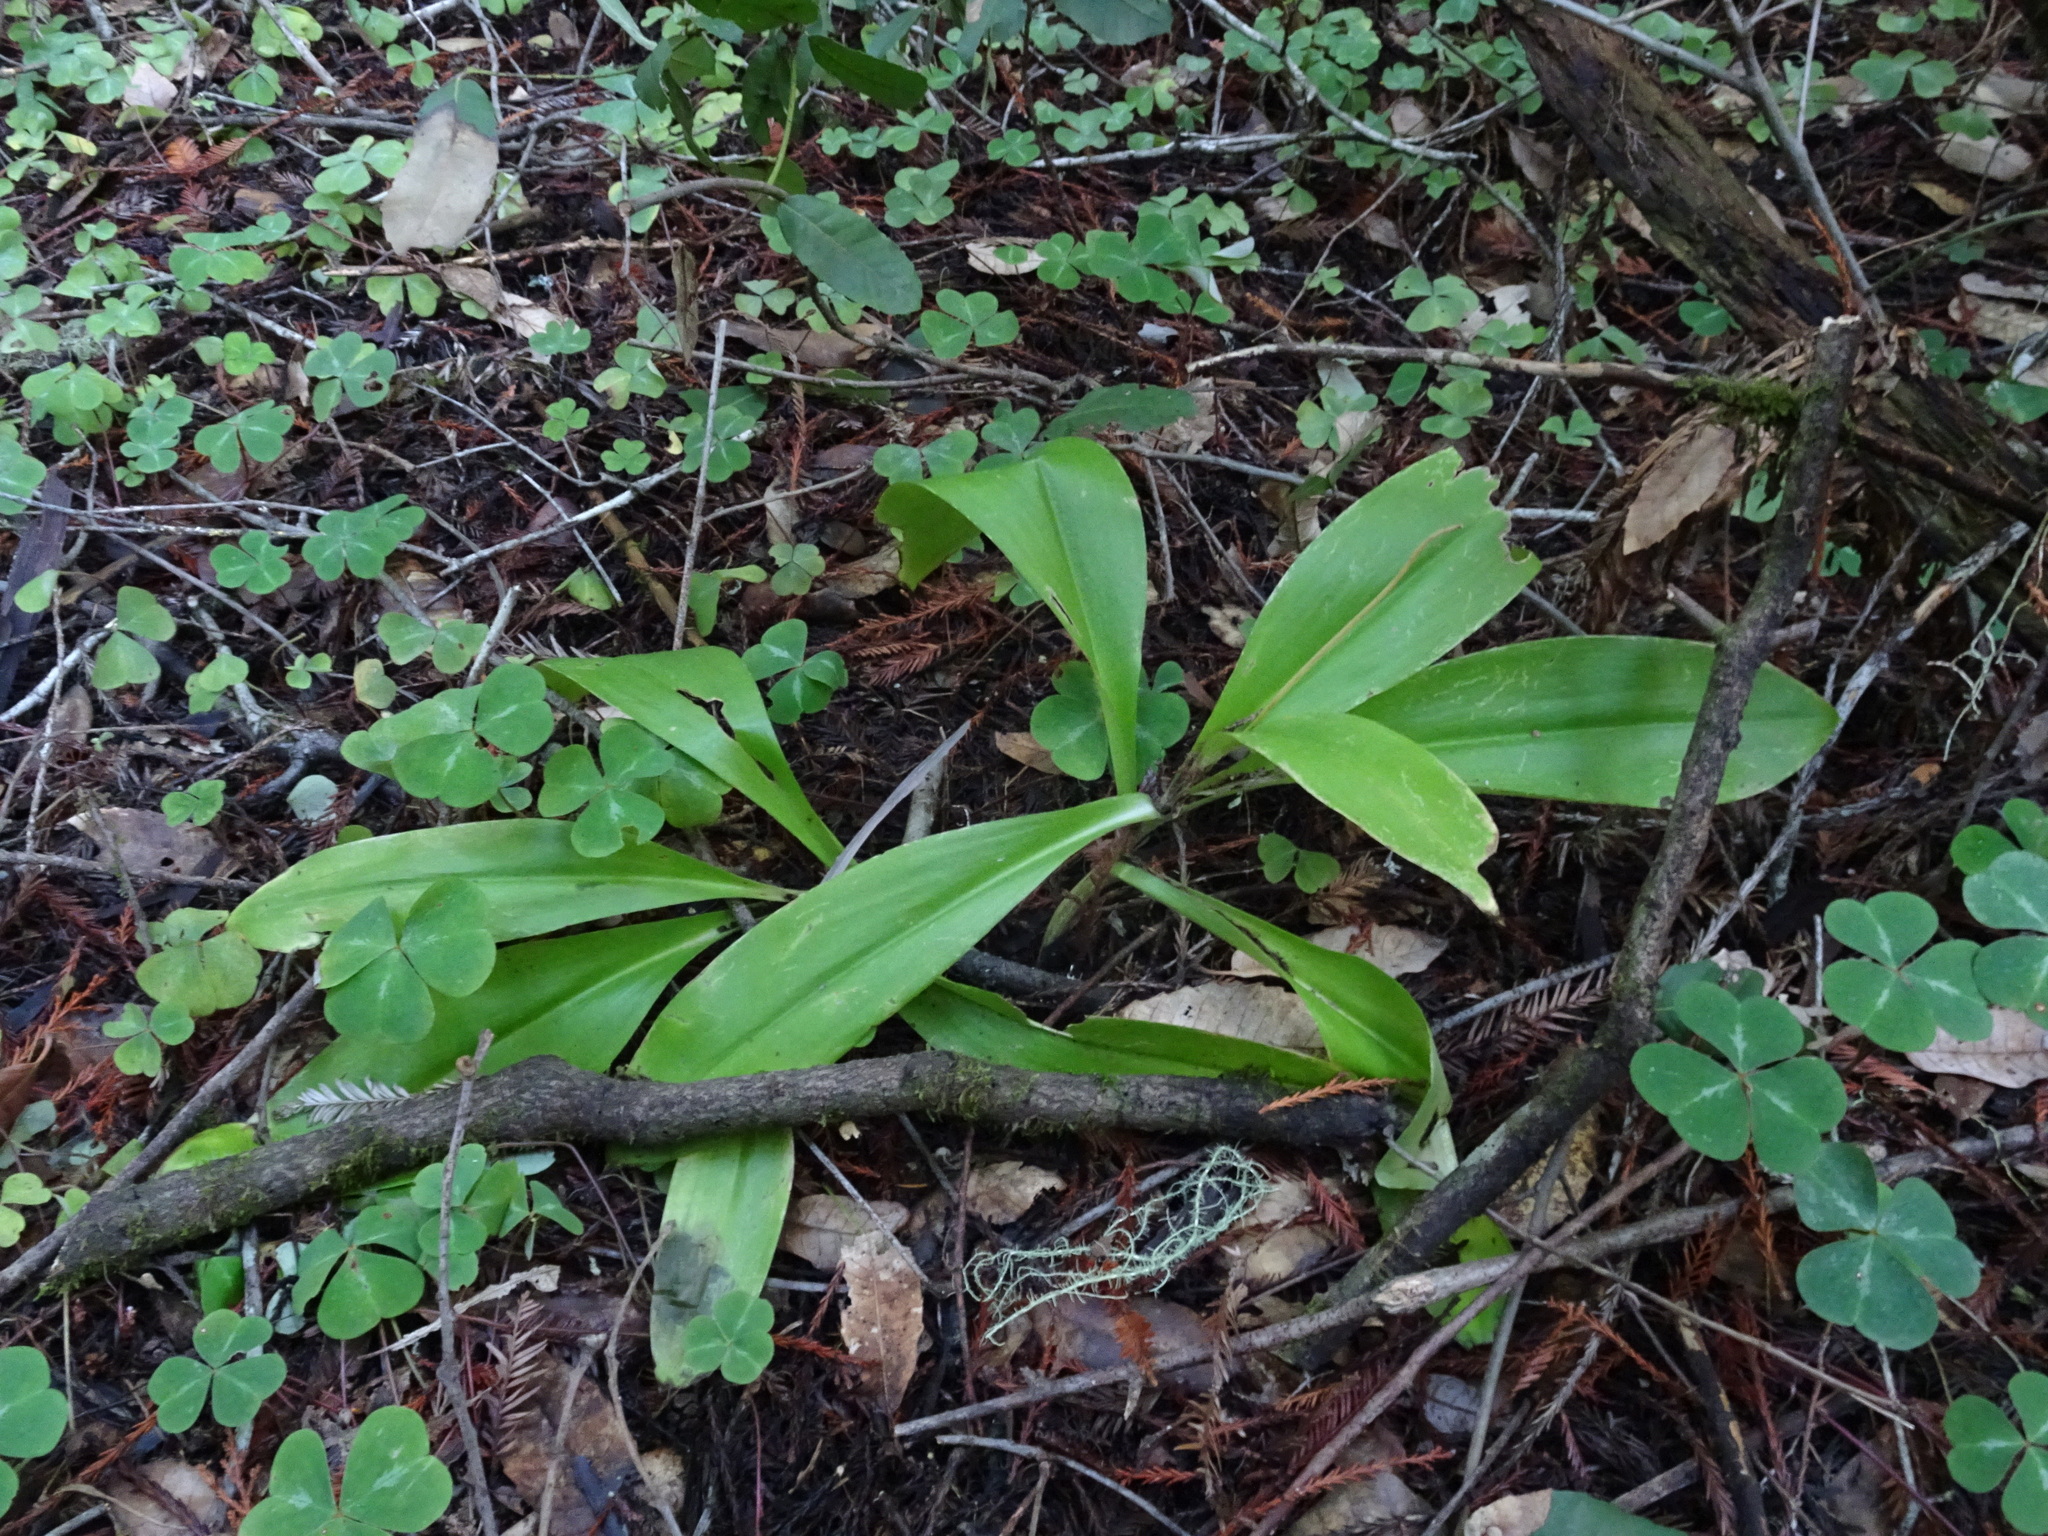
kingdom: Plantae
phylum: Tracheophyta
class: Liliopsida
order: Liliales
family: Liliaceae
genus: Clintonia
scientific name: Clintonia andrewsiana
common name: Red clintonia
